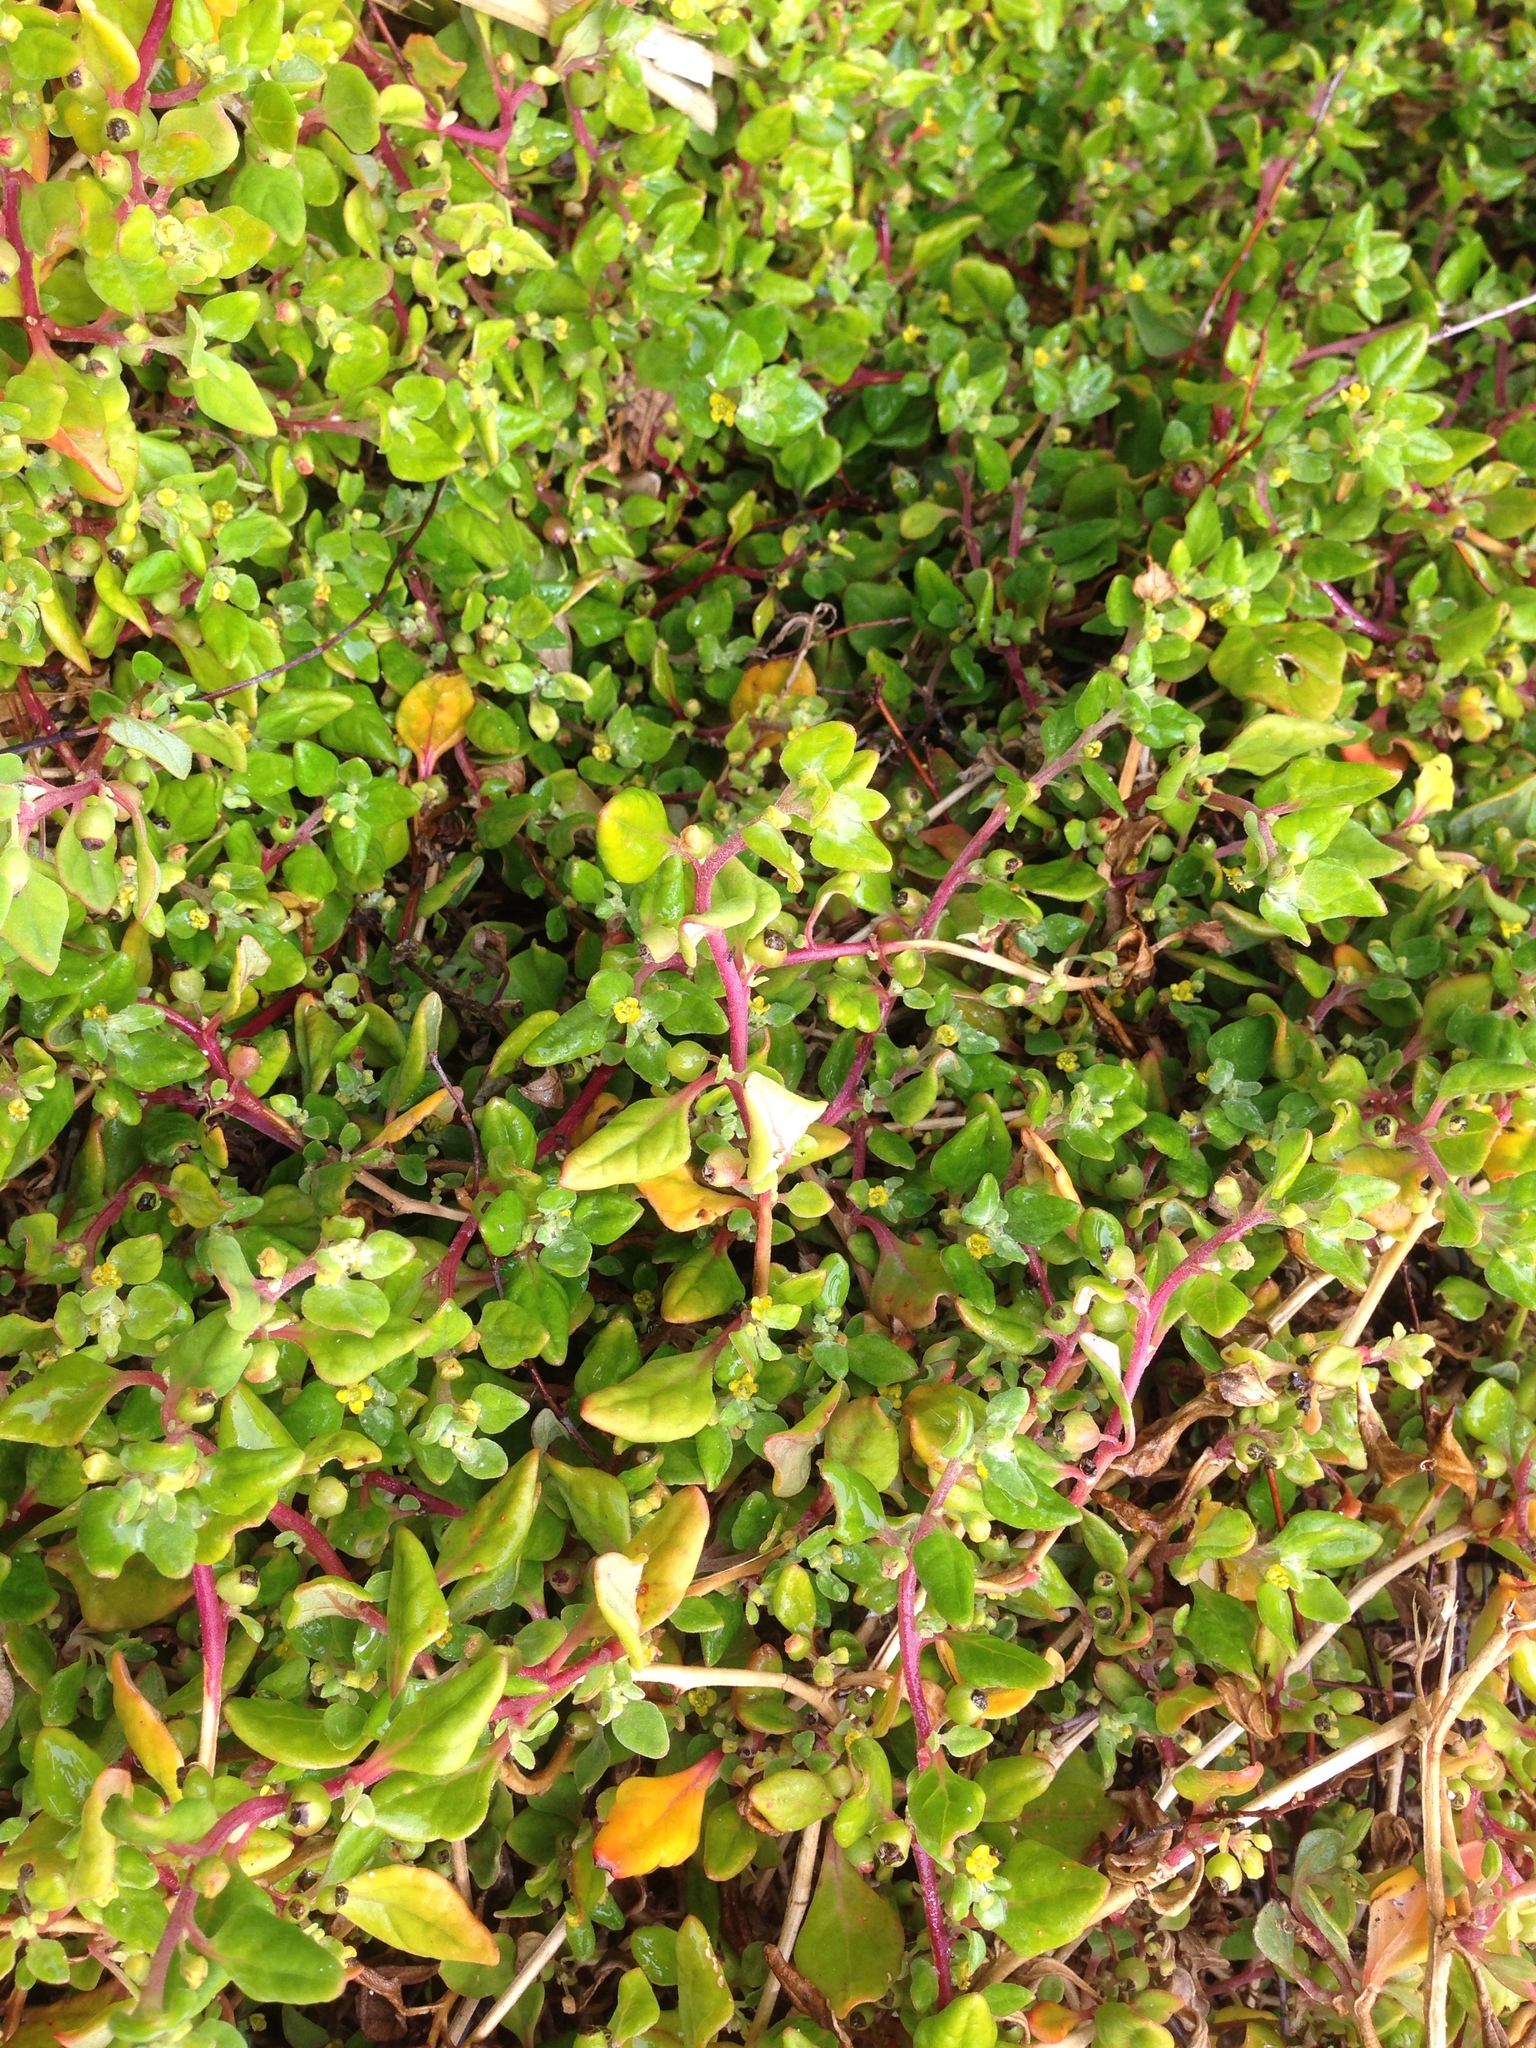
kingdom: Plantae
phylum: Tracheophyta
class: Magnoliopsida
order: Caryophyllales
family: Aizoaceae
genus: Tetragonia
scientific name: Tetragonia implexicoma
